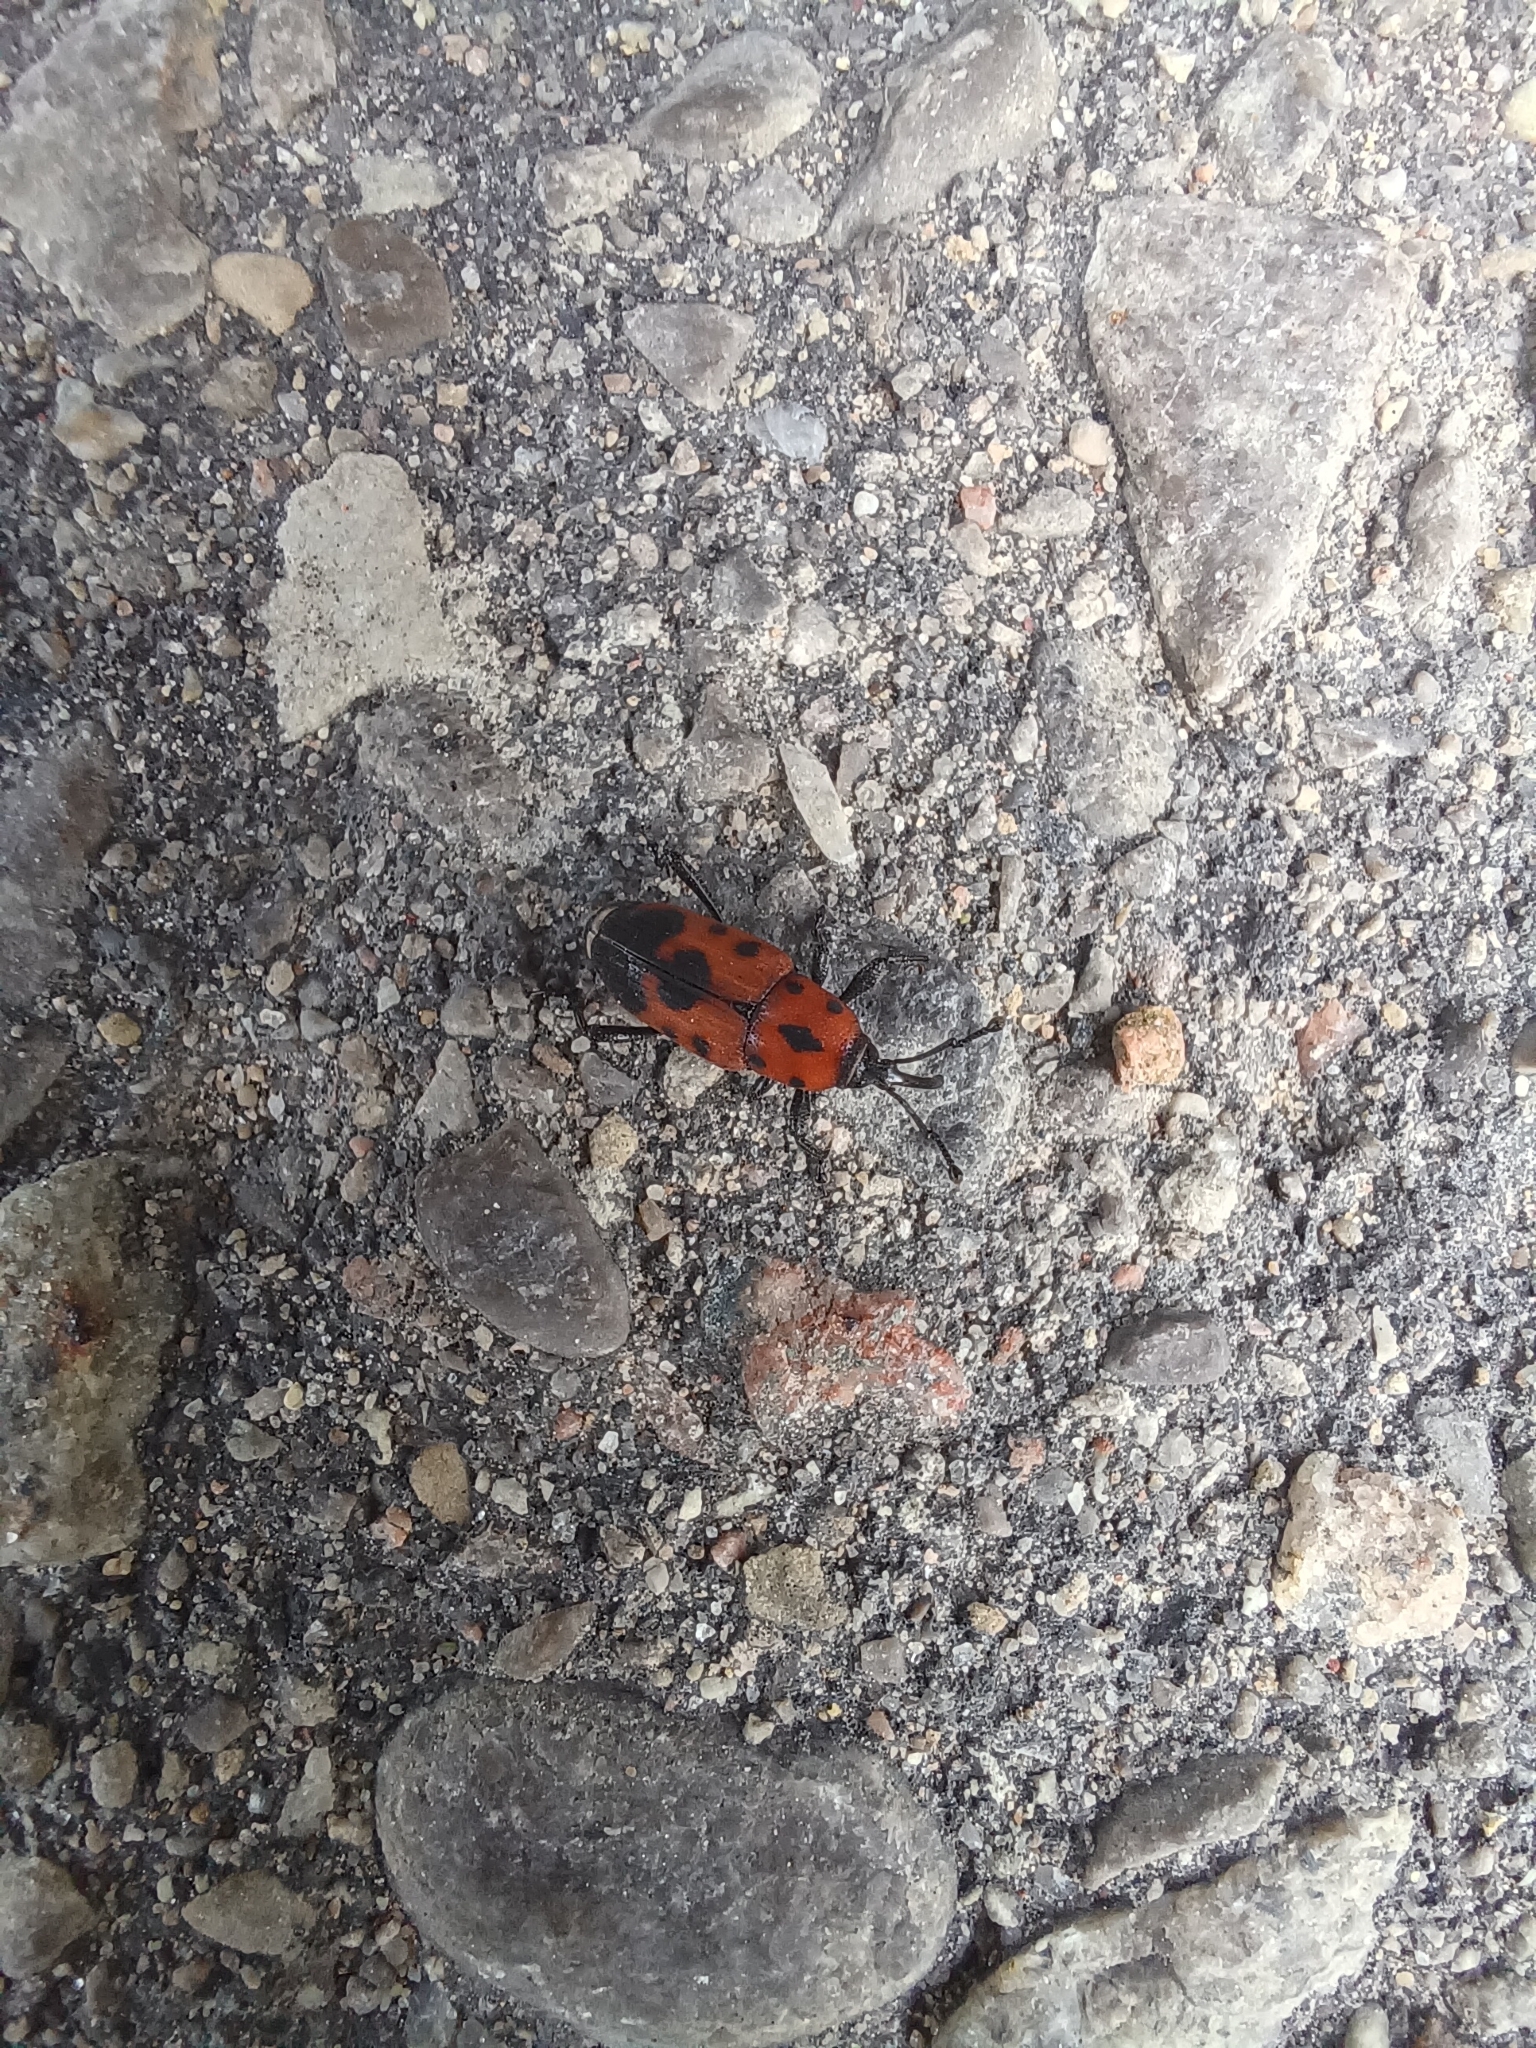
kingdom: Animalia
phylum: Arthropoda
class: Insecta
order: Coleoptera
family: Dryophthoridae
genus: Rhodobaenus
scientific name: Rhodobaenus quinquepunctatus
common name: Cocklebur weevil
